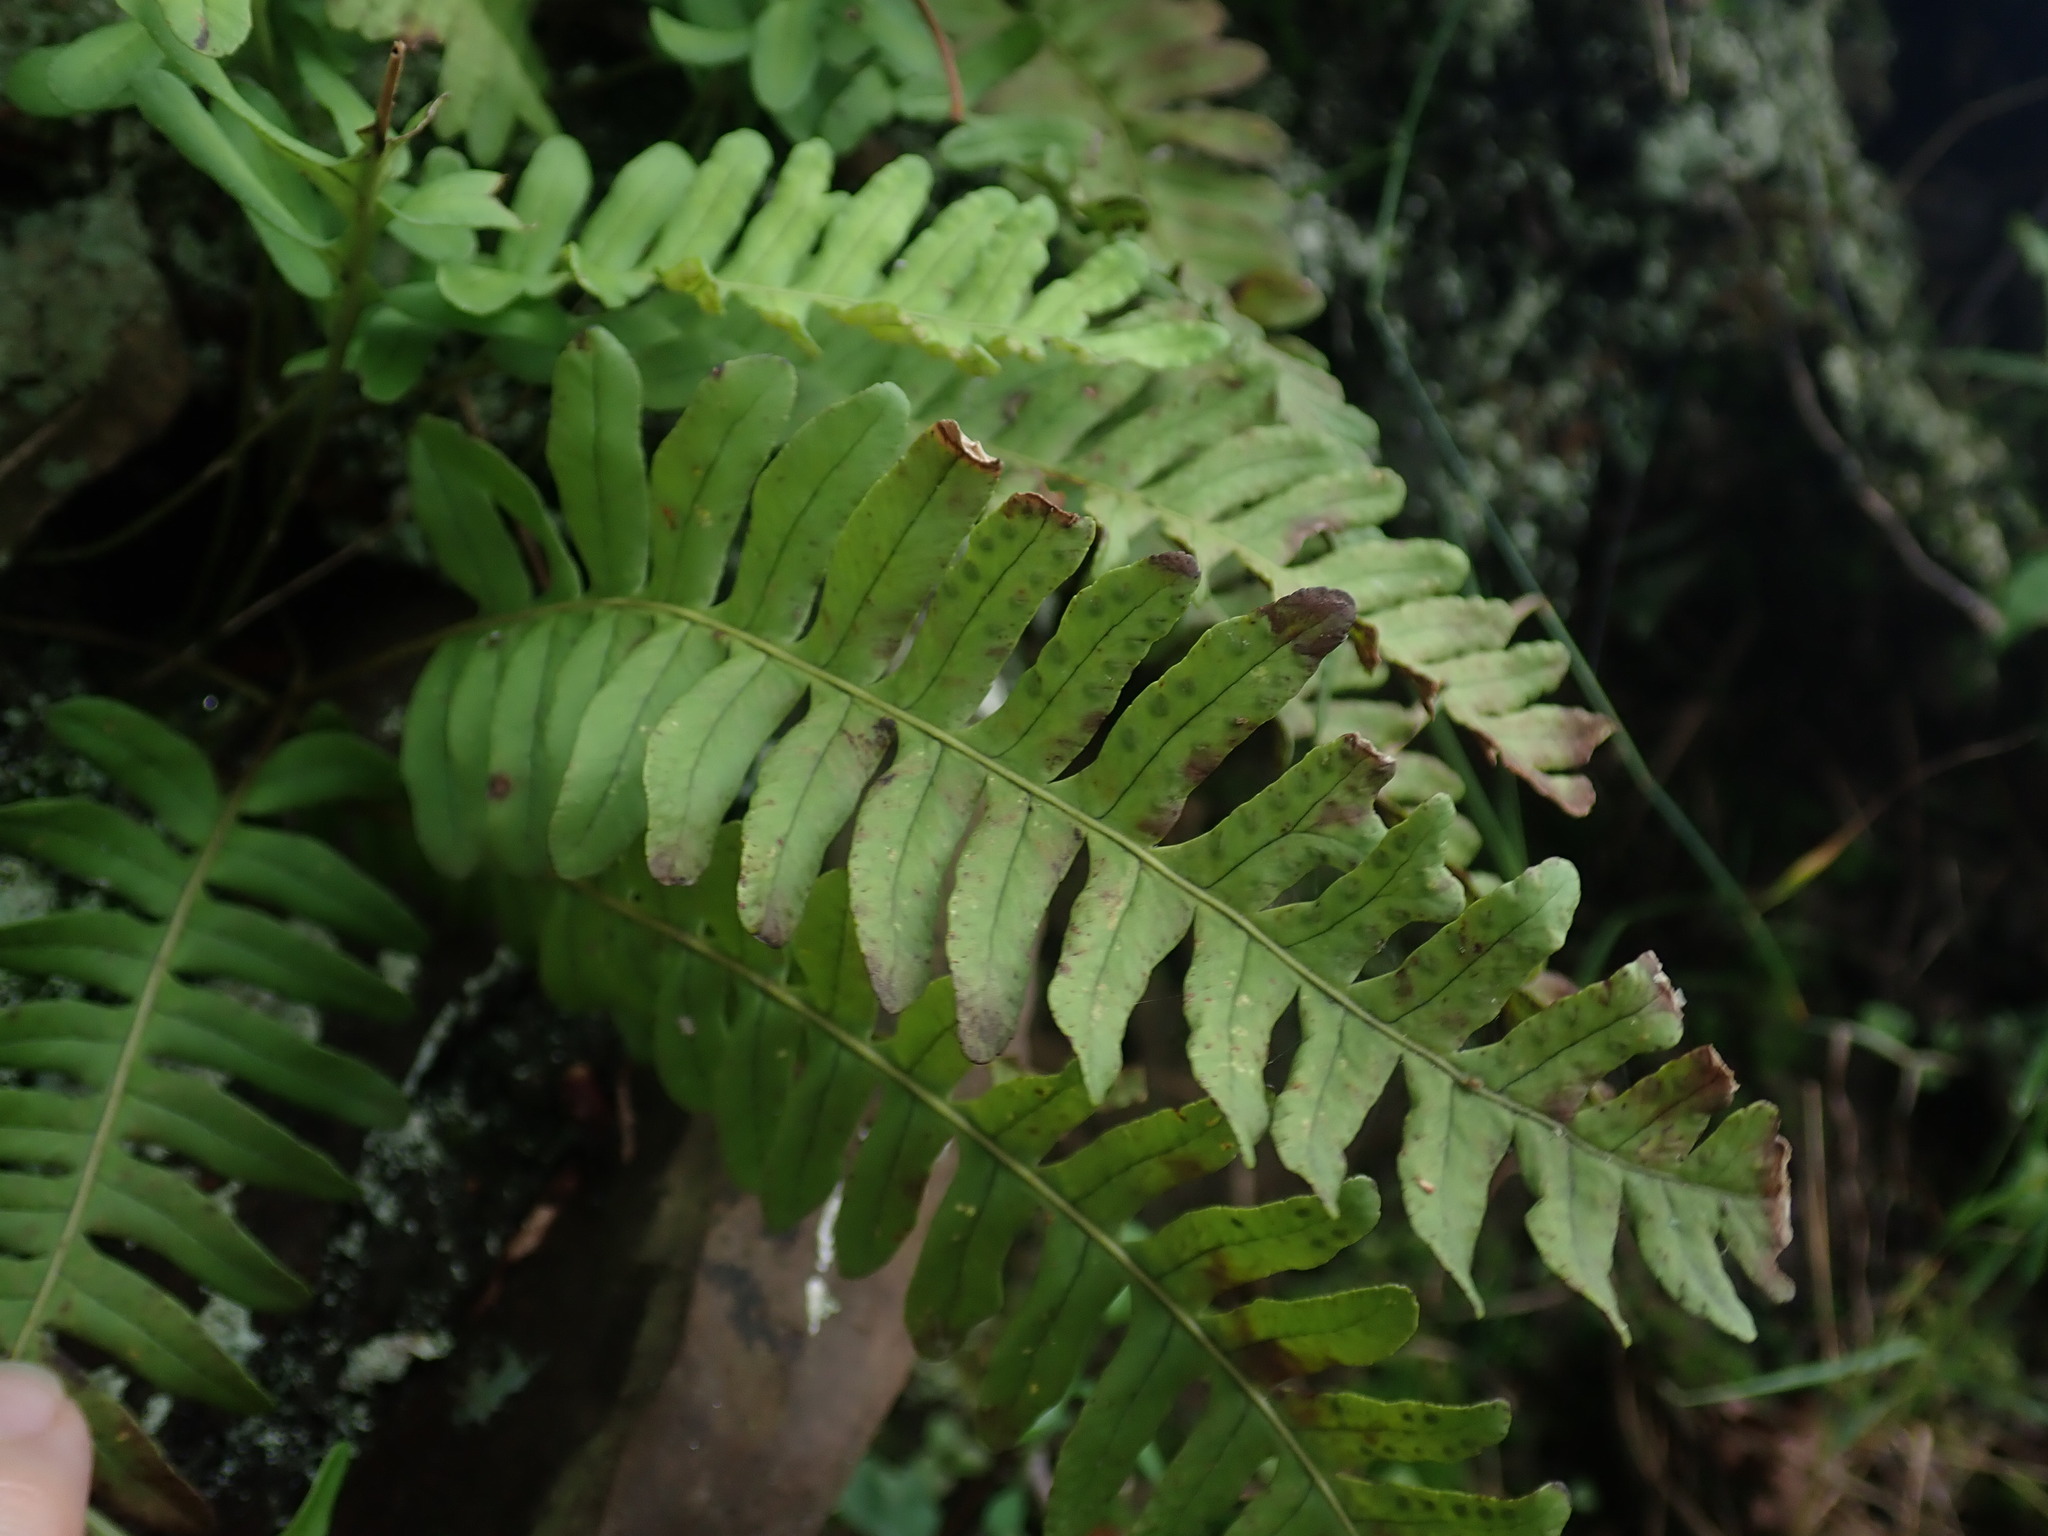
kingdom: Plantae
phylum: Tracheophyta
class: Polypodiopsida
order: Polypodiales
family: Polypodiaceae
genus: Polypodium
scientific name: Polypodium virginianum
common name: American wall fern
